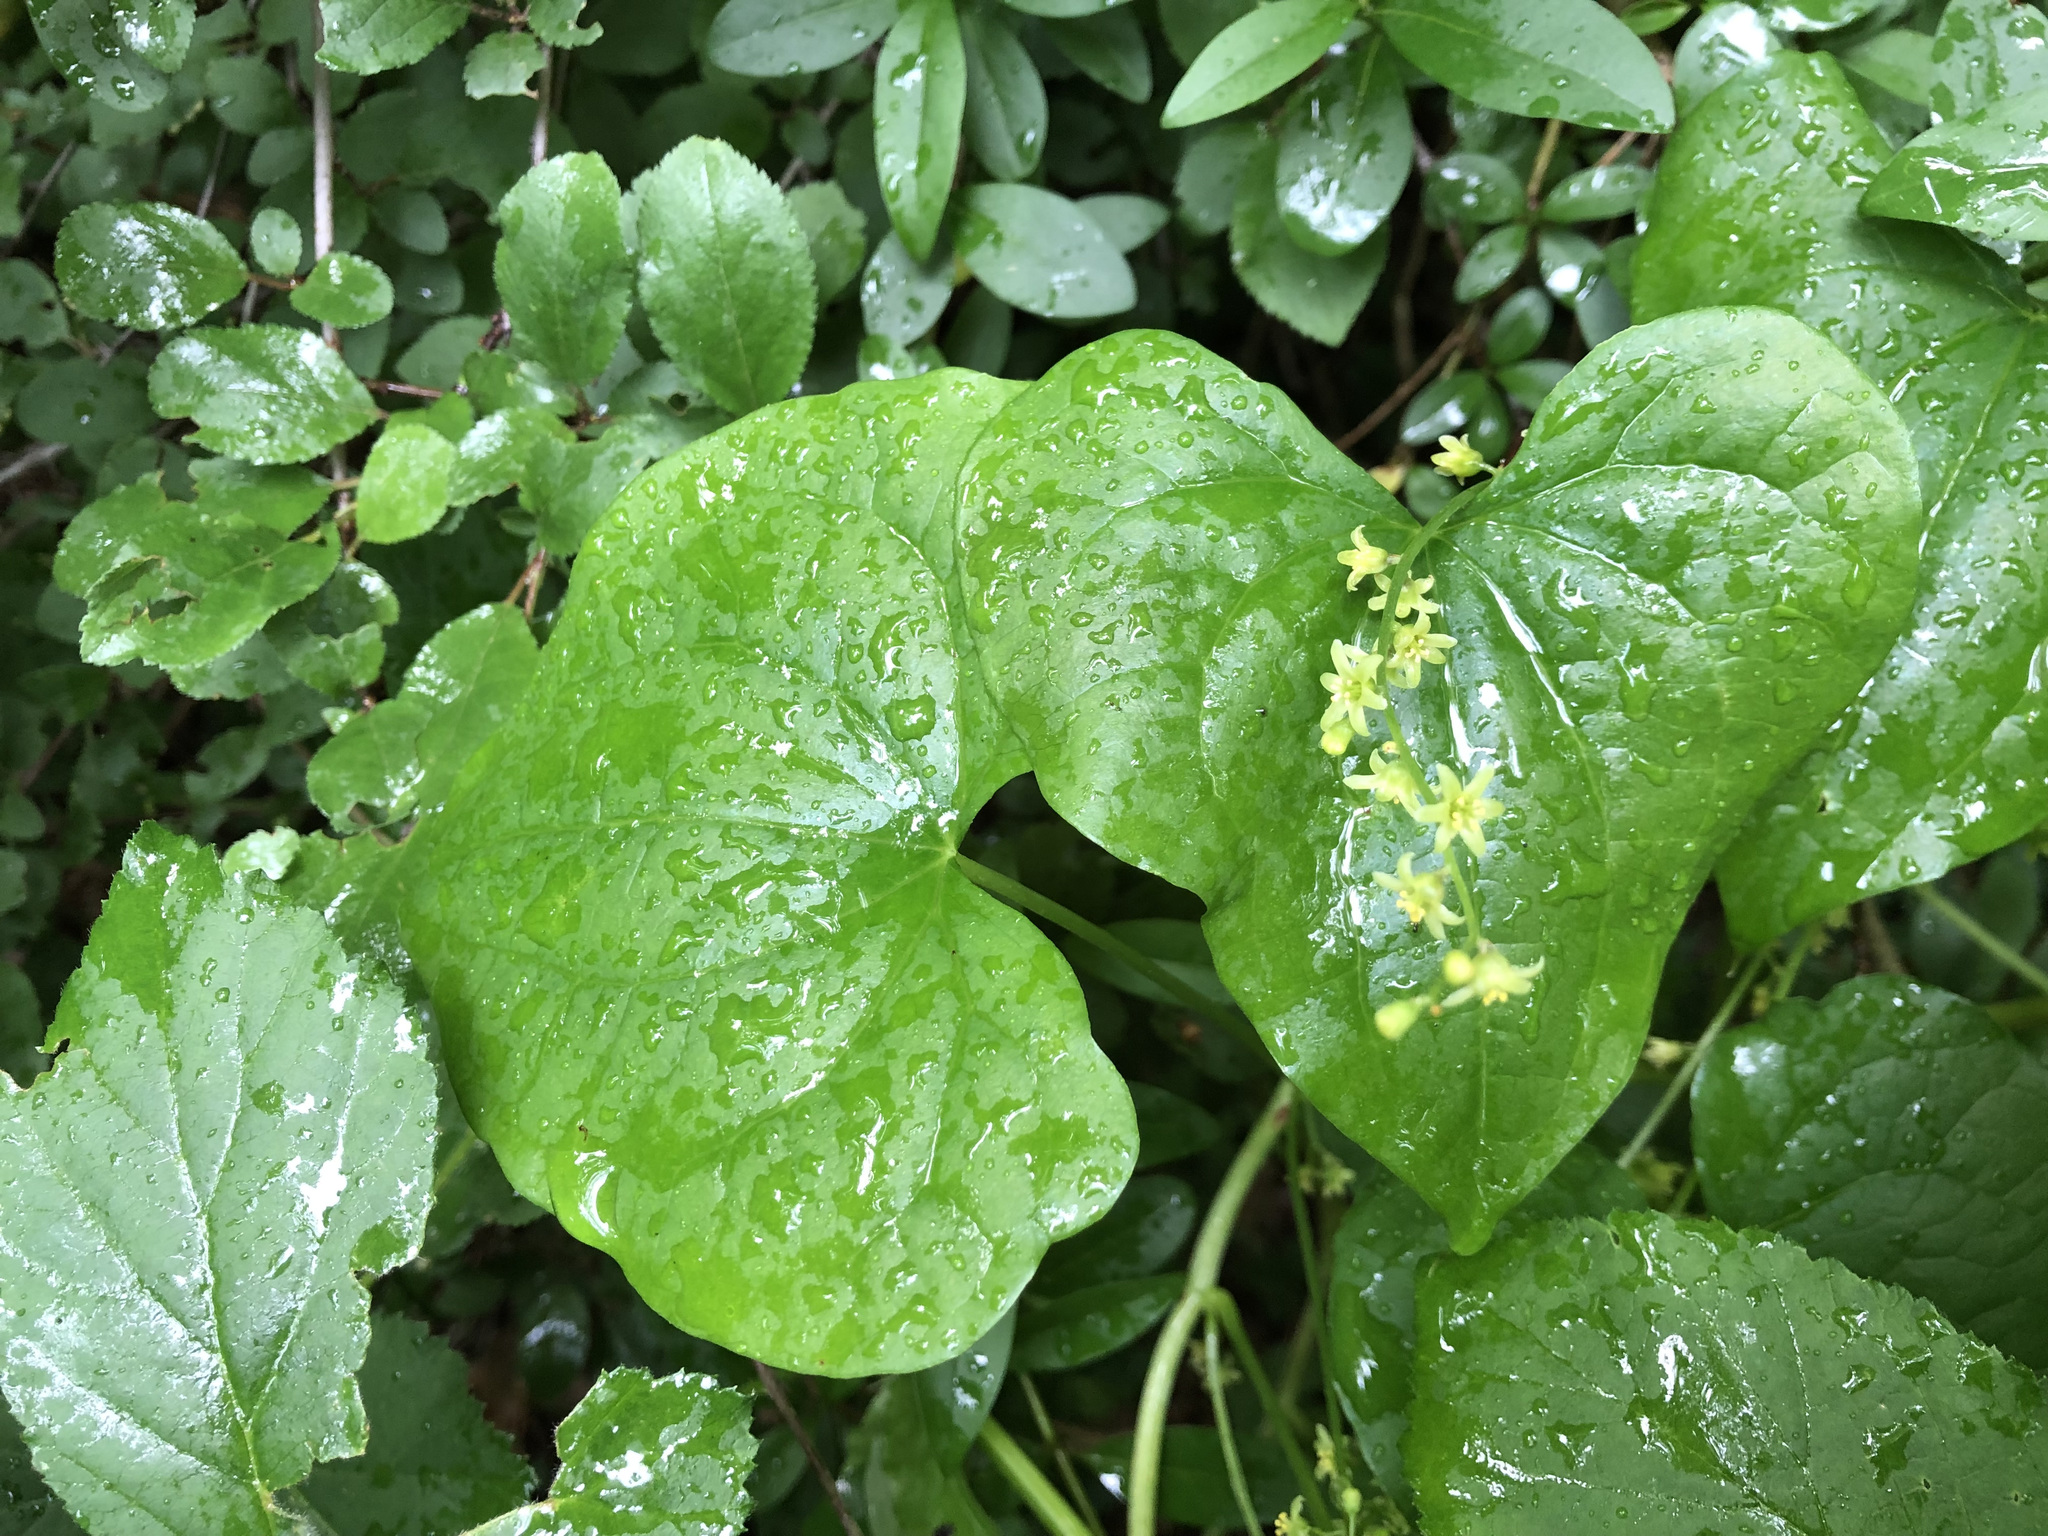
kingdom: Plantae
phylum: Tracheophyta
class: Liliopsida
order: Dioscoreales
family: Dioscoreaceae
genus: Dioscorea
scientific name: Dioscorea communis
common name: Black-bindweed
